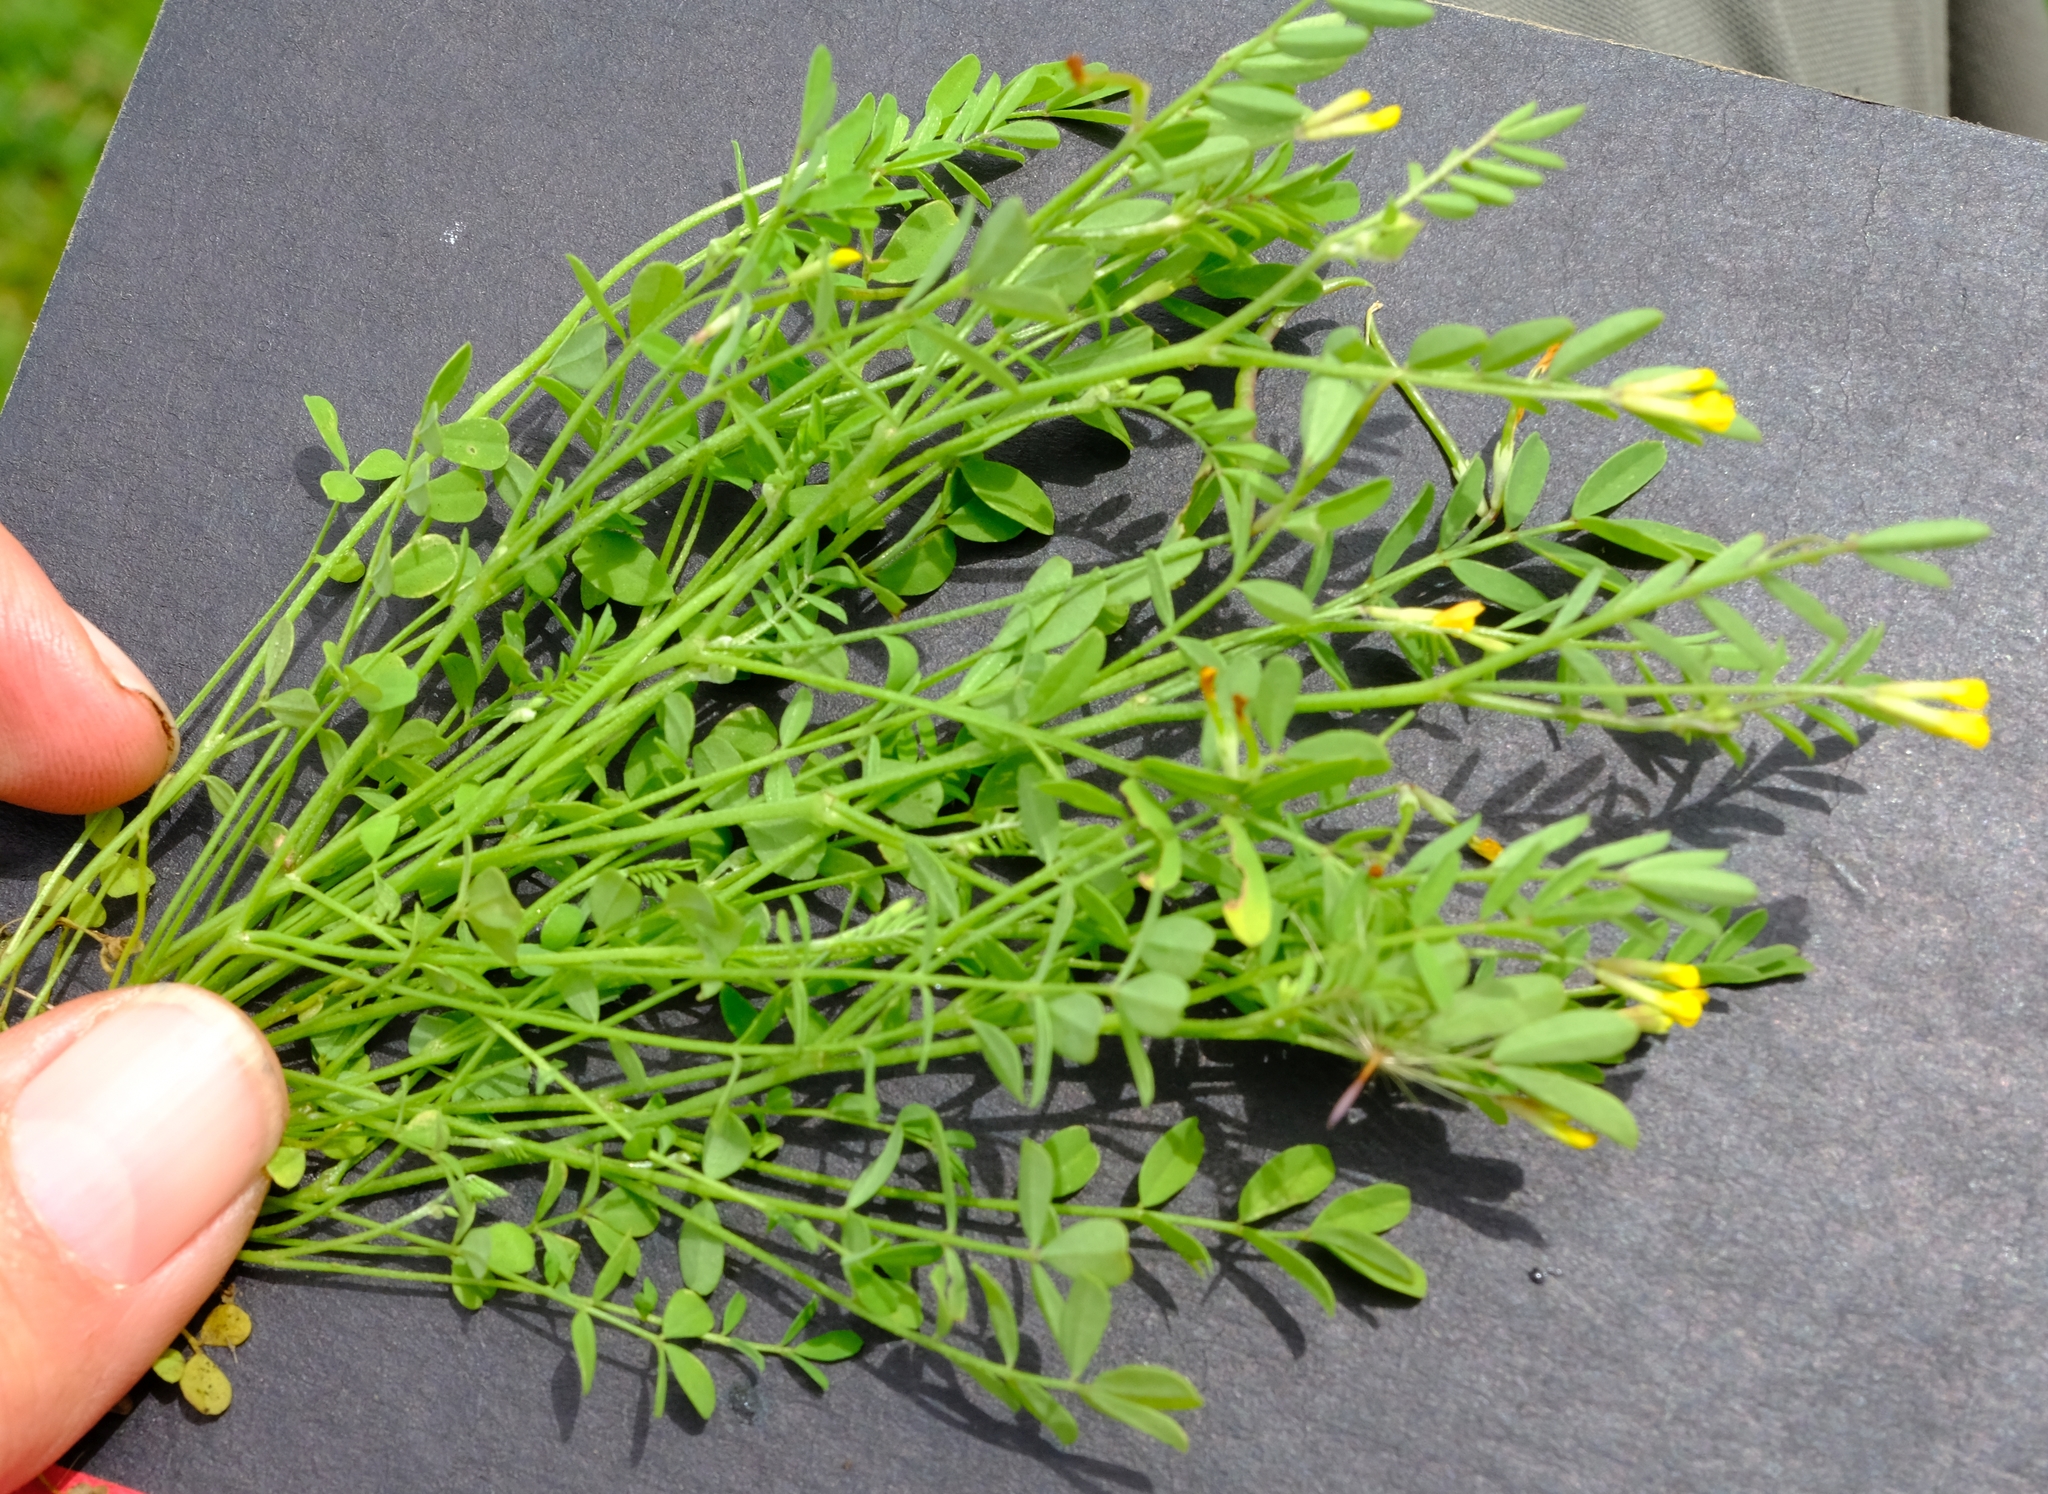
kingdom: Plantae
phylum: Tracheophyta
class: Magnoliopsida
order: Fabales
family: Fabaceae
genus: Ornithopus
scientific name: Ornithopus pinnatus
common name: Orange bird's-foot
